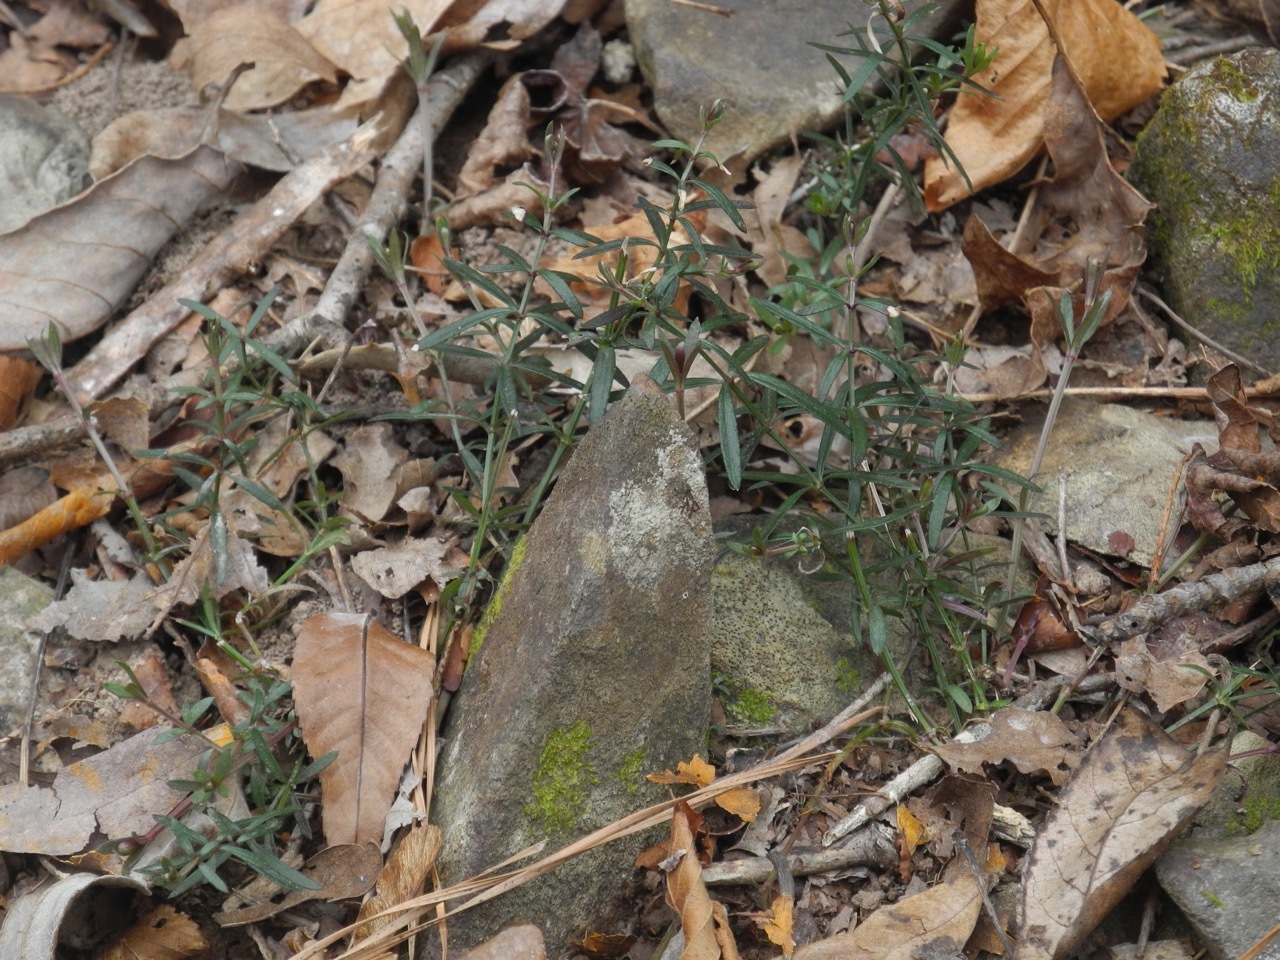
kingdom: Plantae
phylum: Tracheophyta
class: Magnoliopsida
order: Gentianales
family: Rubiaceae
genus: Galium
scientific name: Galium uniflorum
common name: One-flower bedstraw
